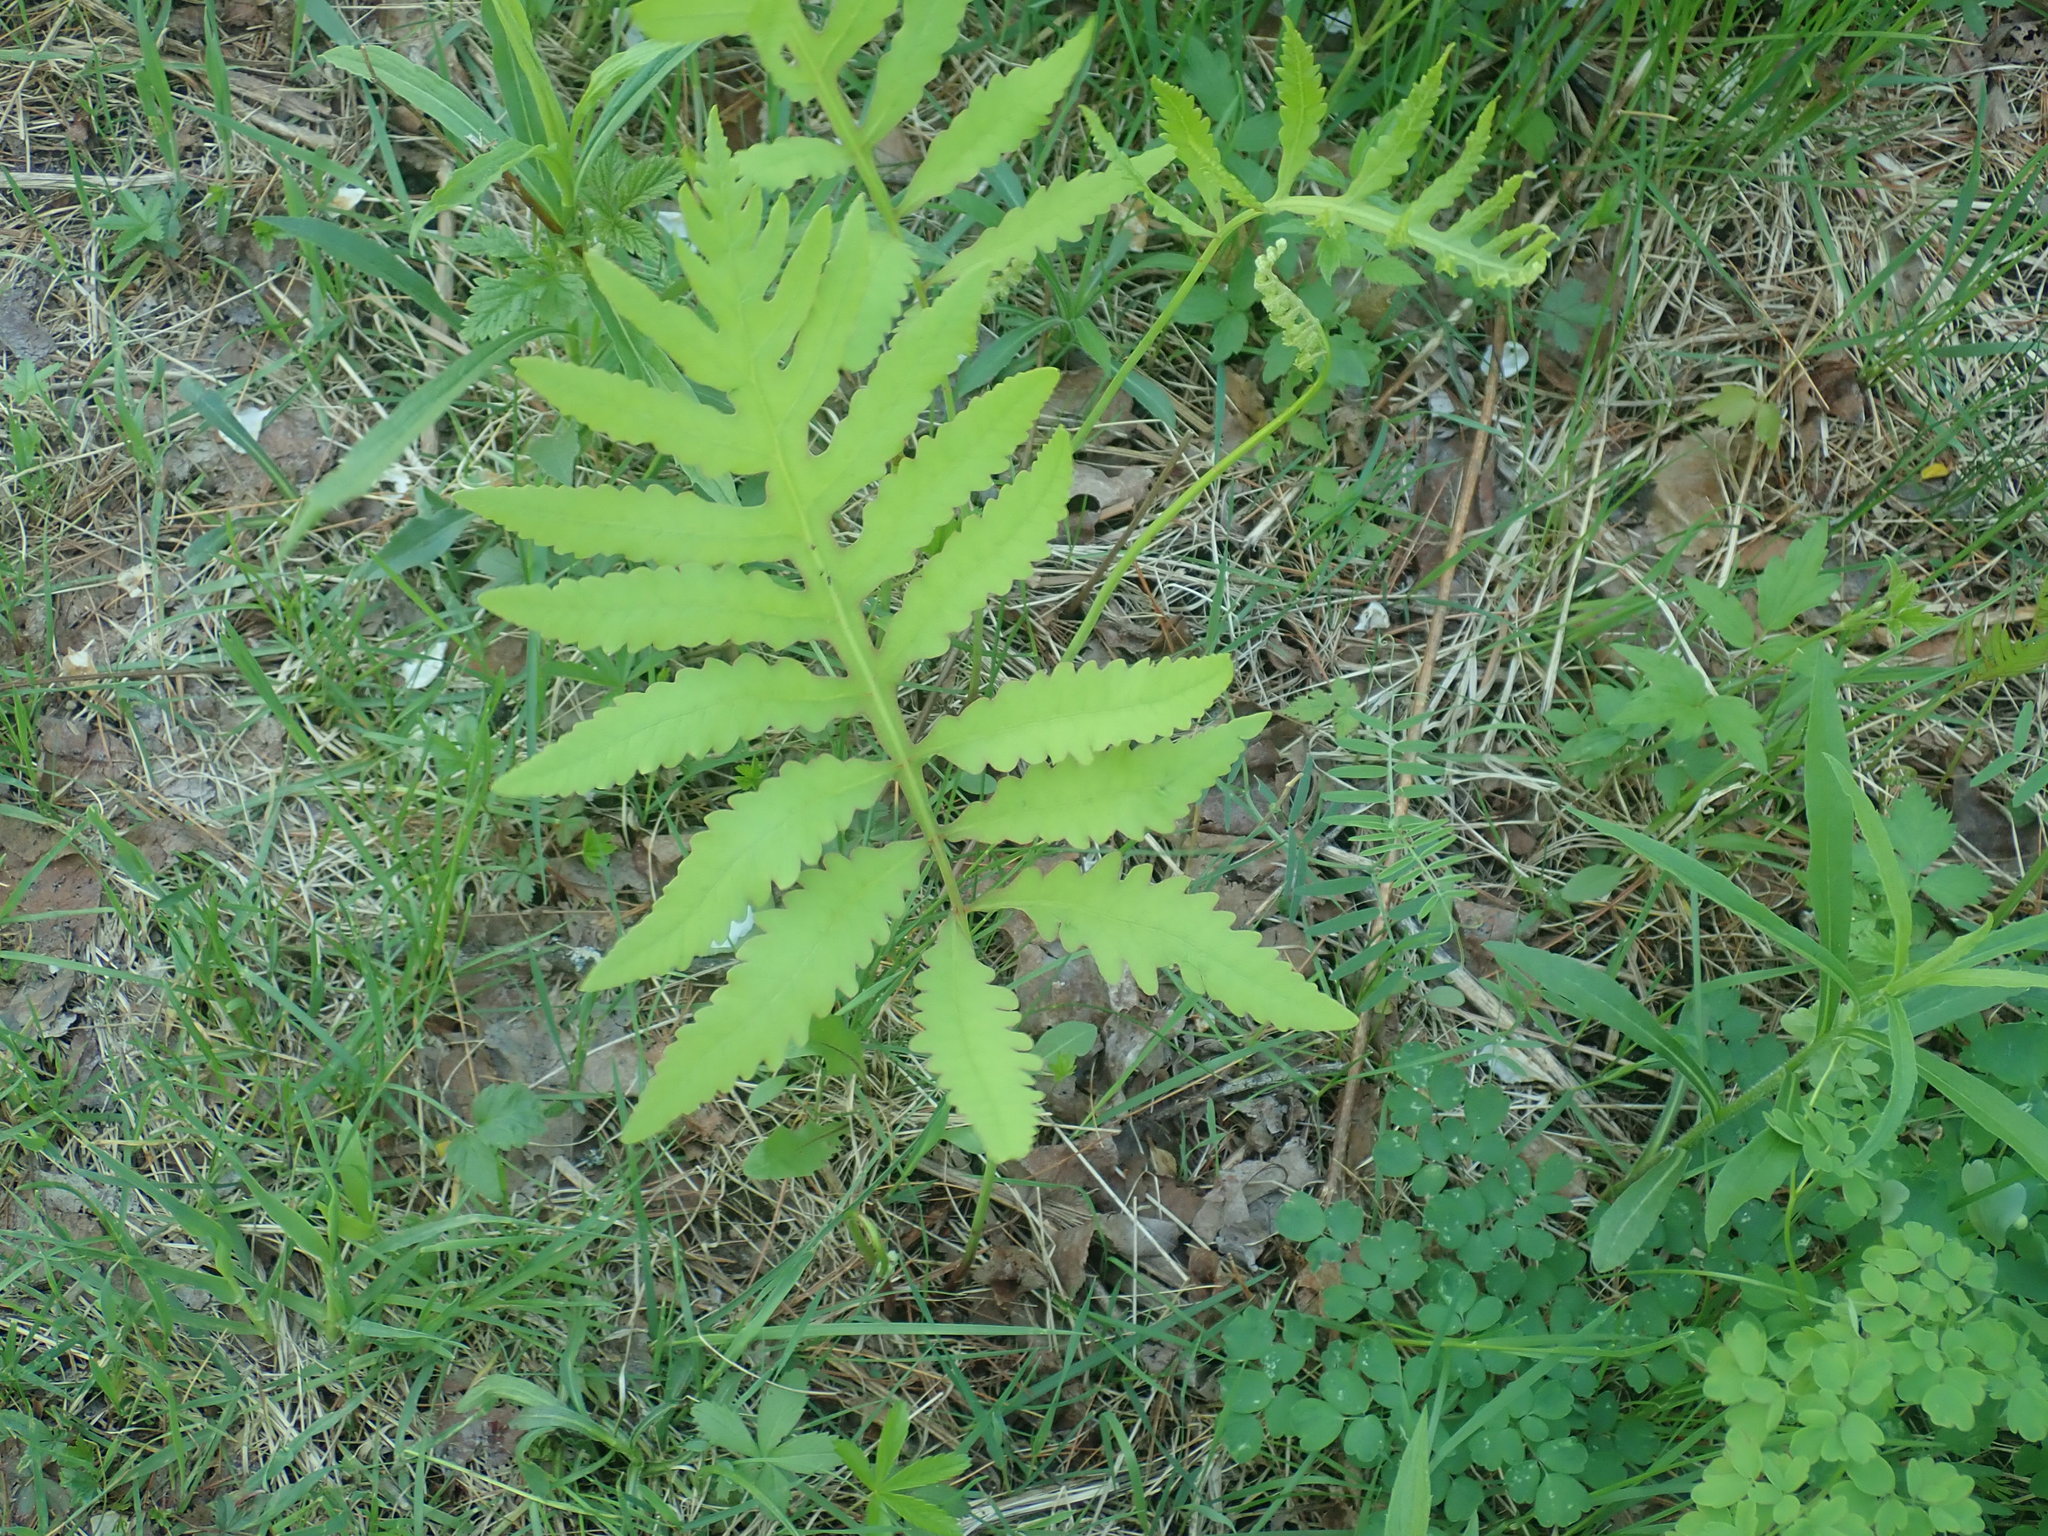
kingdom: Plantae
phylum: Tracheophyta
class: Polypodiopsida
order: Polypodiales
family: Onocleaceae
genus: Onoclea
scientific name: Onoclea sensibilis
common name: Sensitive fern
